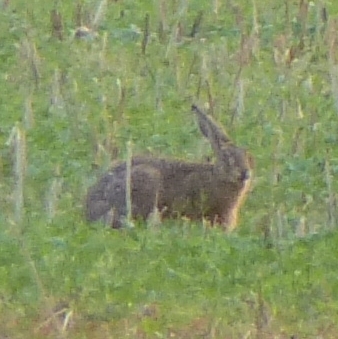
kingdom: Animalia
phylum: Chordata
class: Mammalia
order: Lagomorpha
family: Leporidae
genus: Lepus
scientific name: Lepus europaeus
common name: European hare
